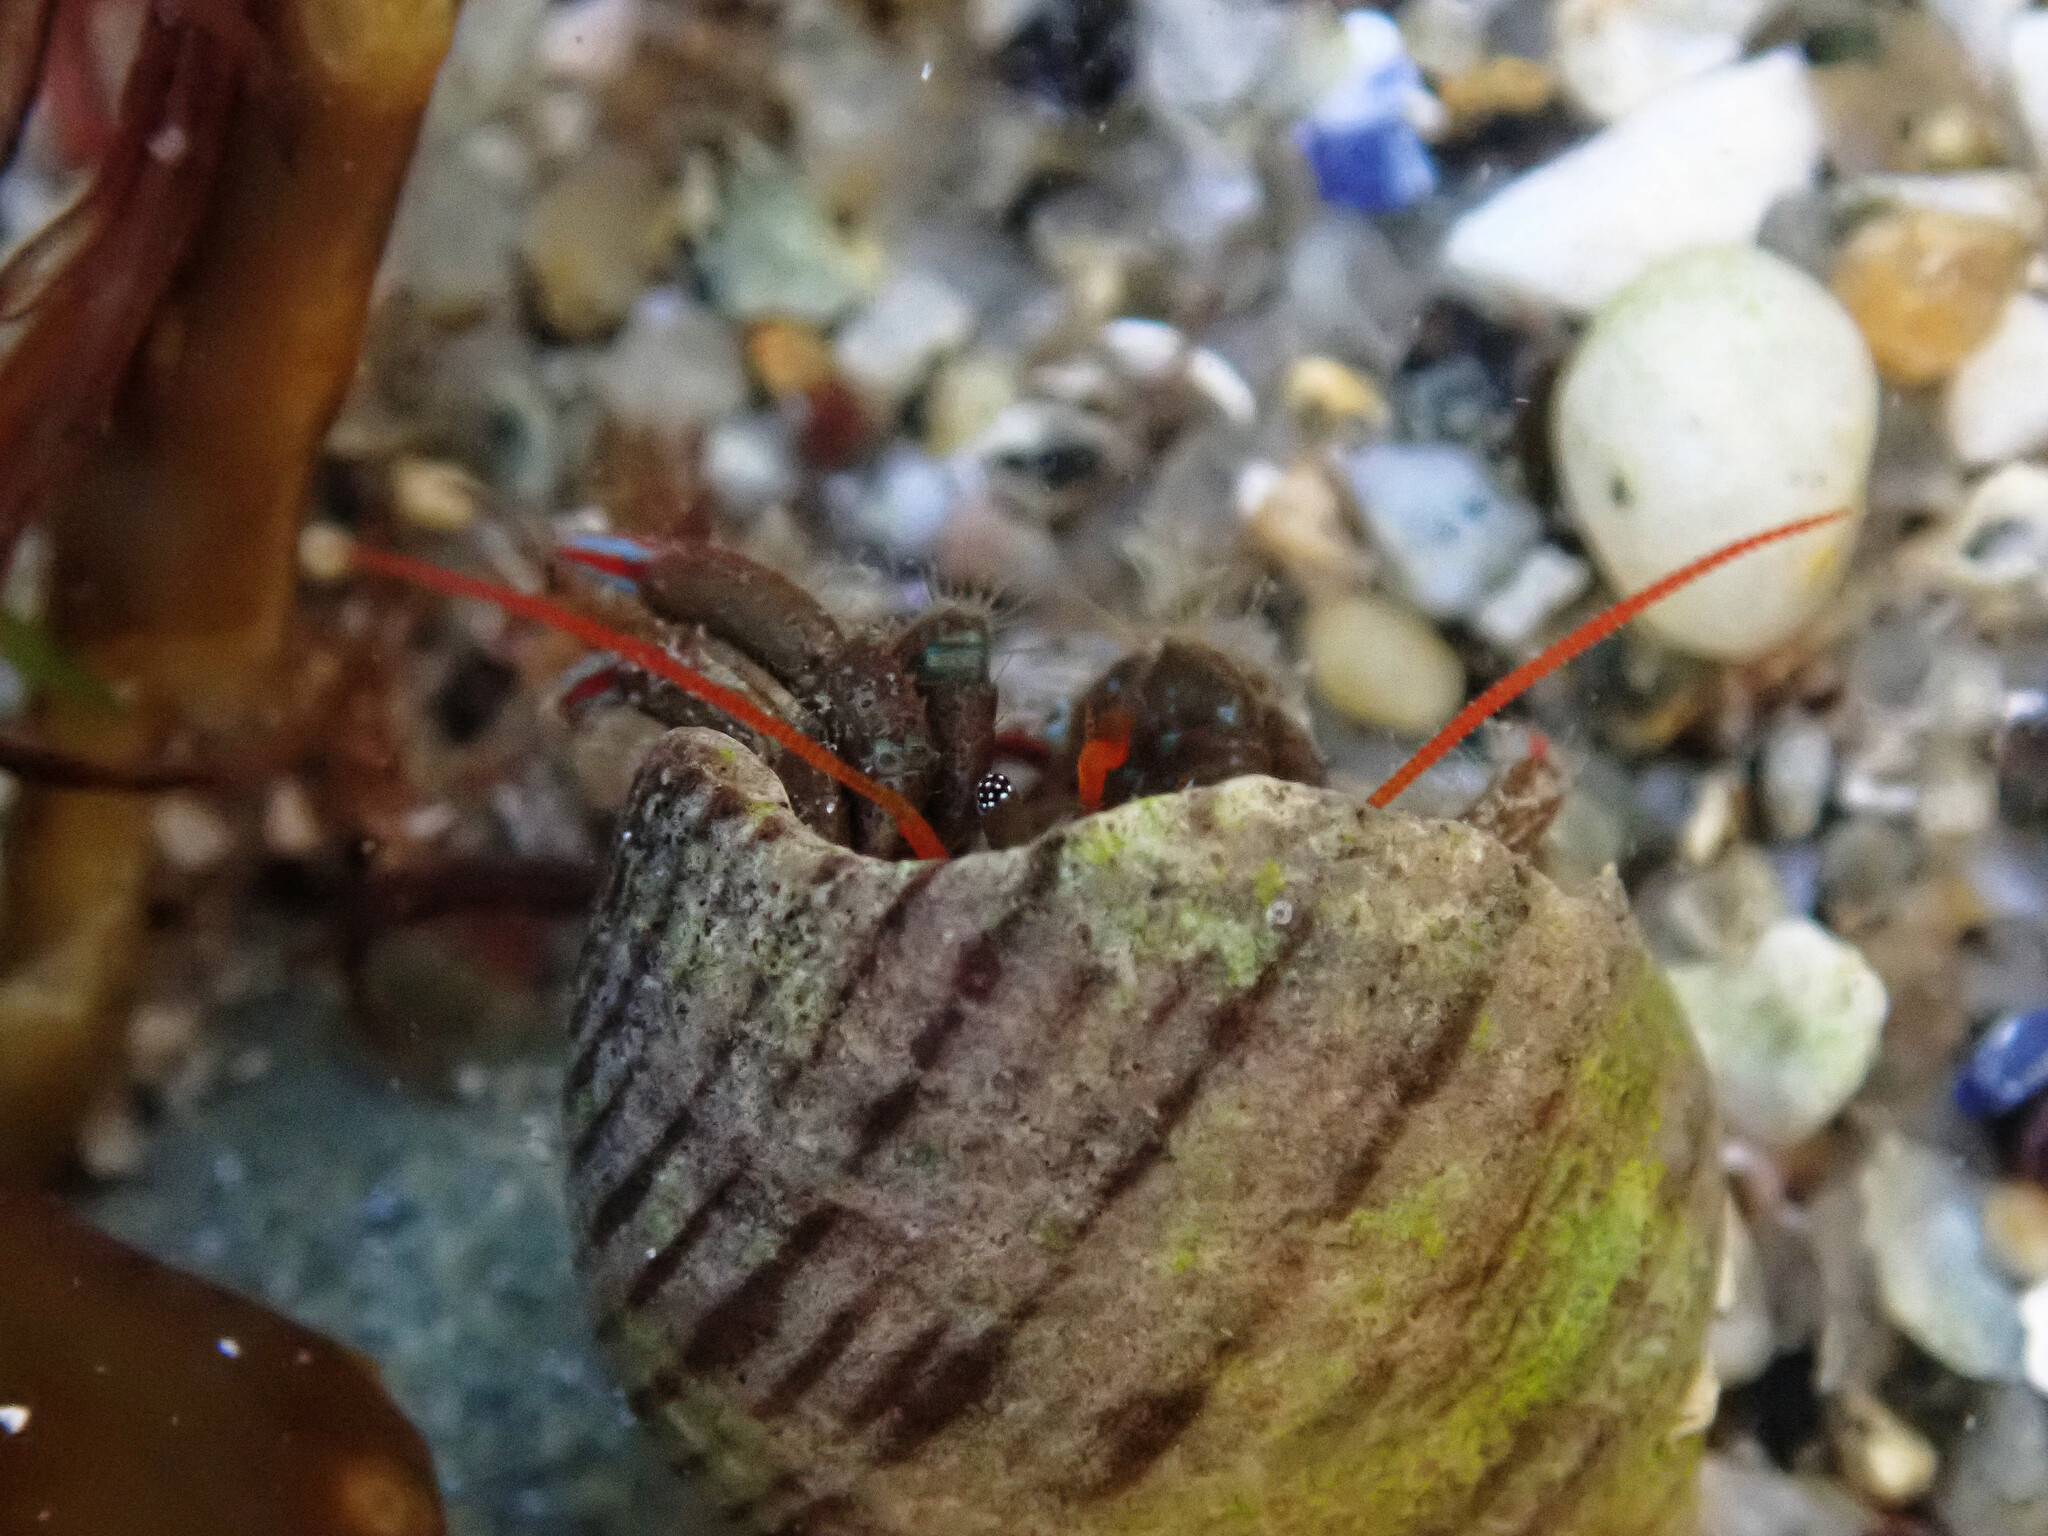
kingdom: Animalia
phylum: Arthropoda
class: Malacostraca
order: Decapoda
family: Diogenidae
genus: Clibanarius
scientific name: Clibanarius erythropus
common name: Hermit crab
